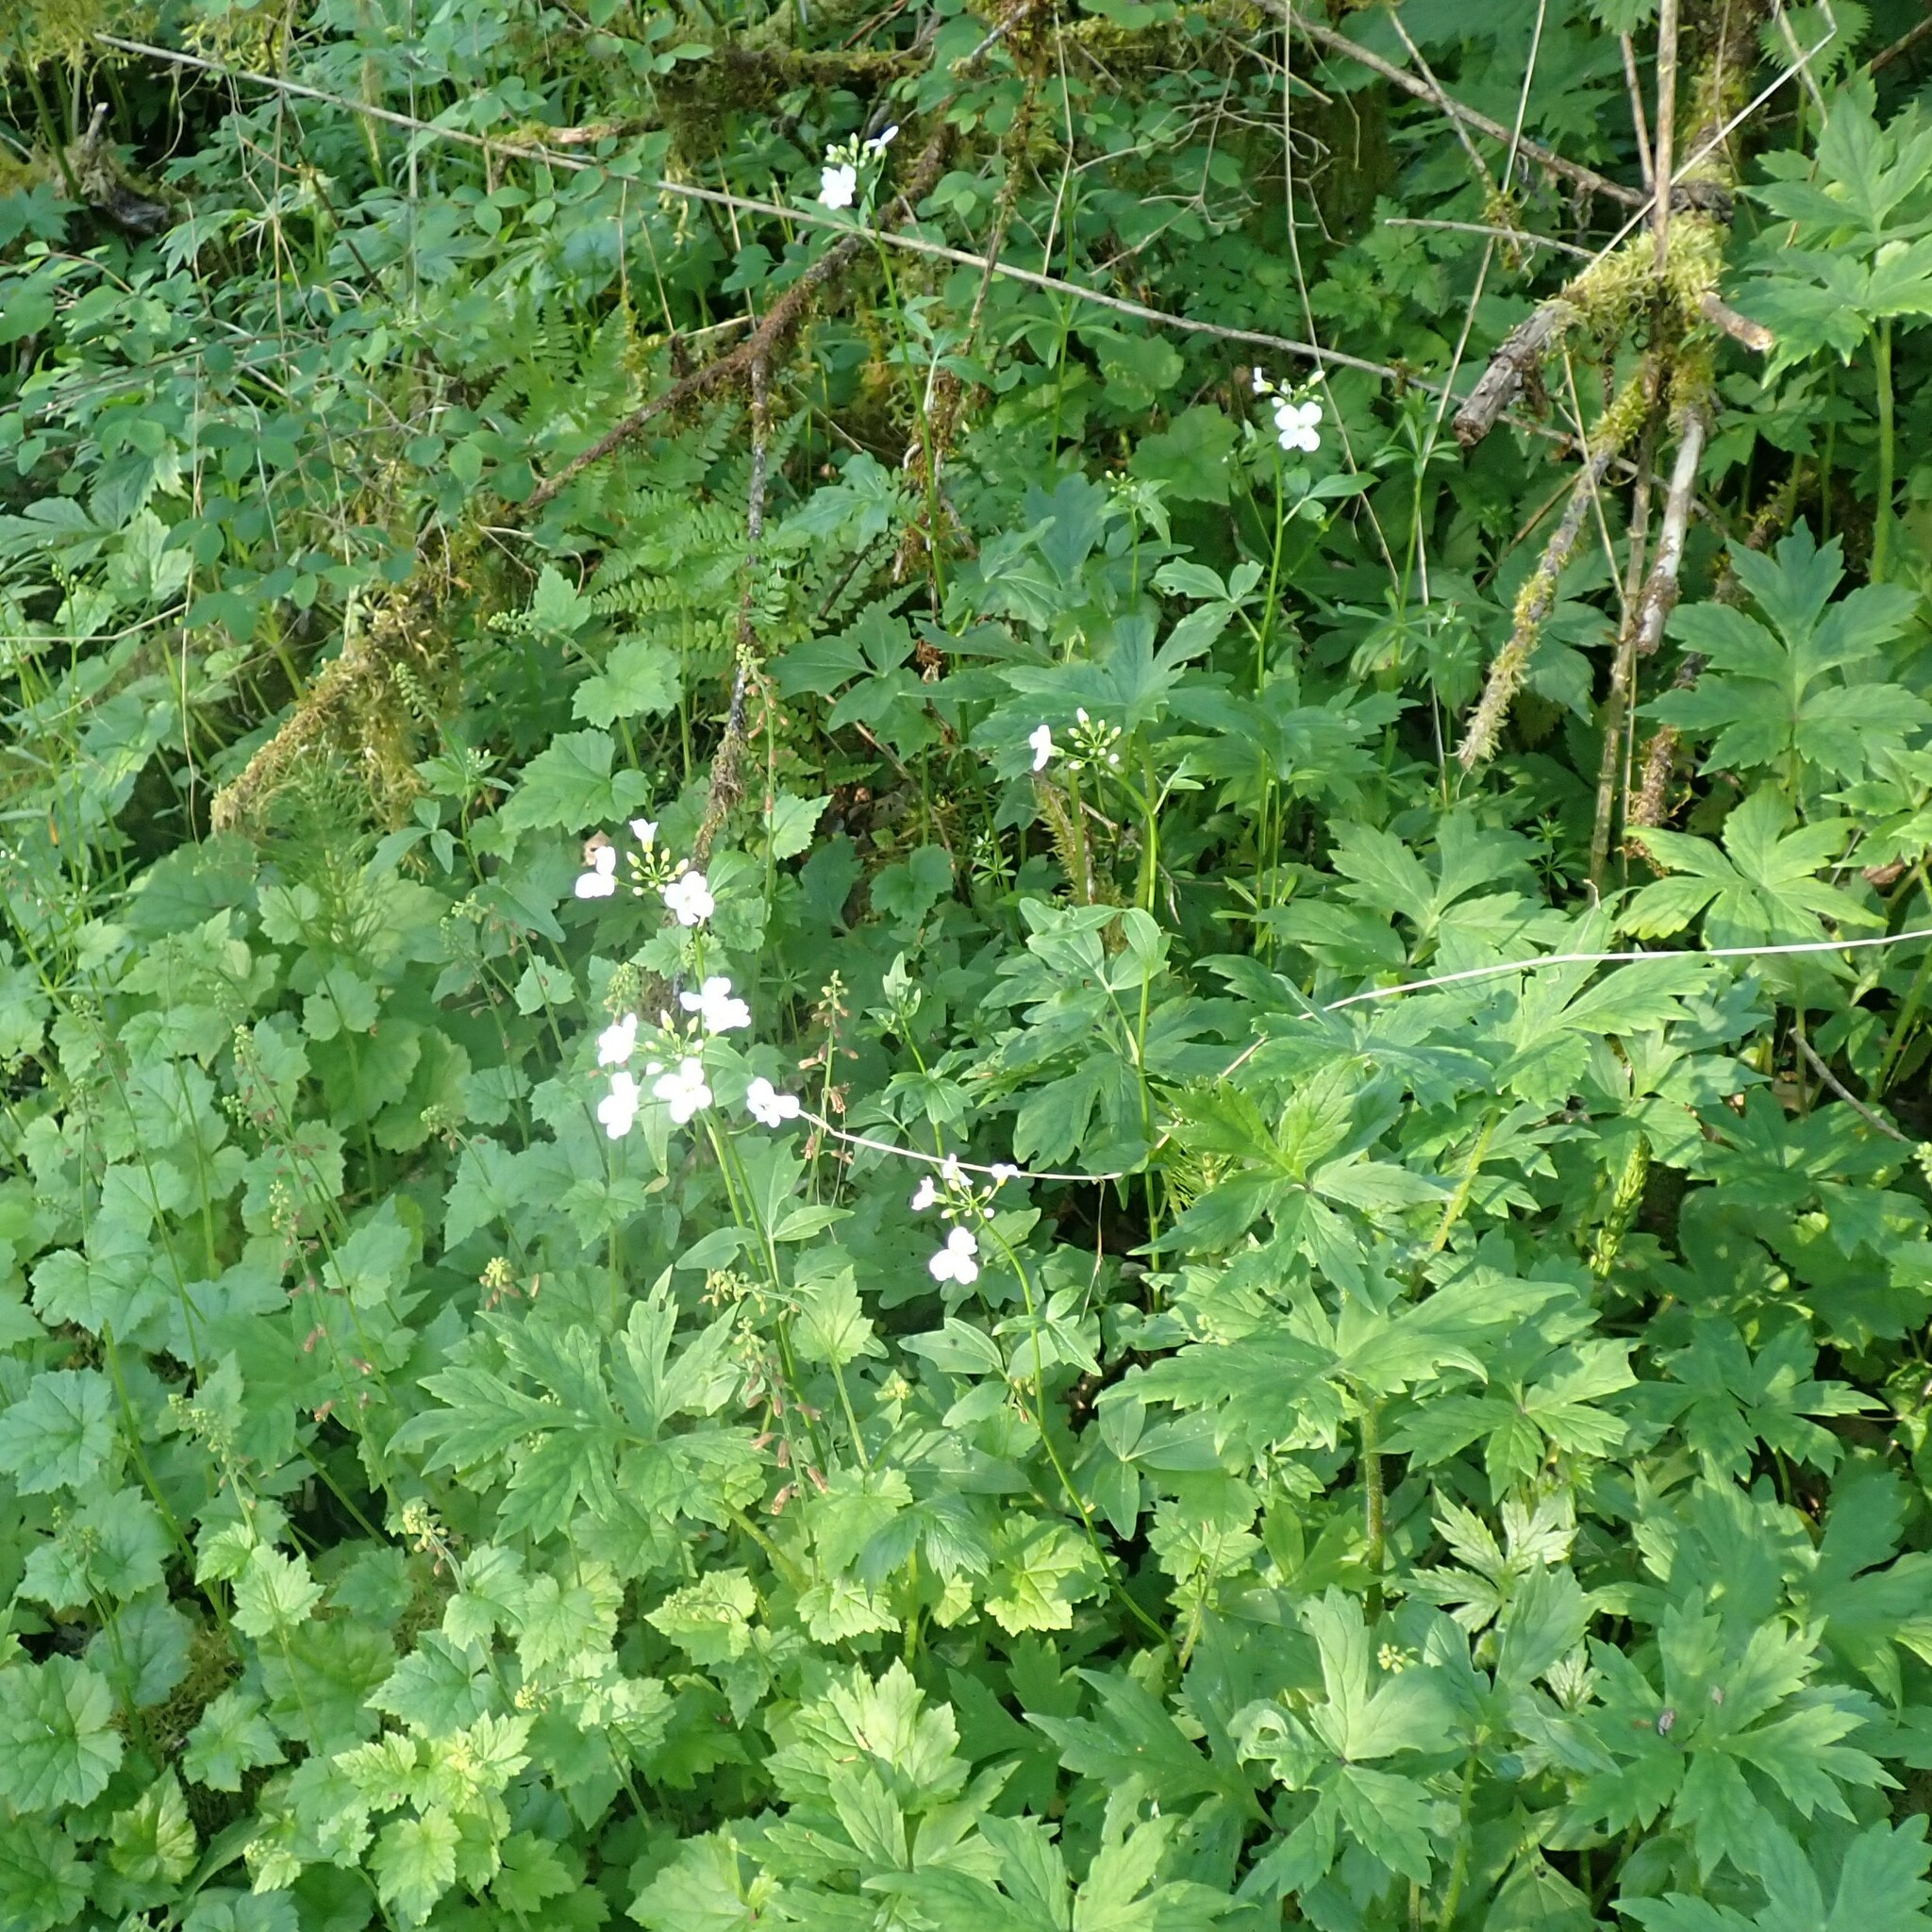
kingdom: Plantae
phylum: Tracheophyta
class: Magnoliopsida
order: Brassicales
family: Brassicaceae
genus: Cardamine
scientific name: Cardamine angulata
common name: Angled bittercress
